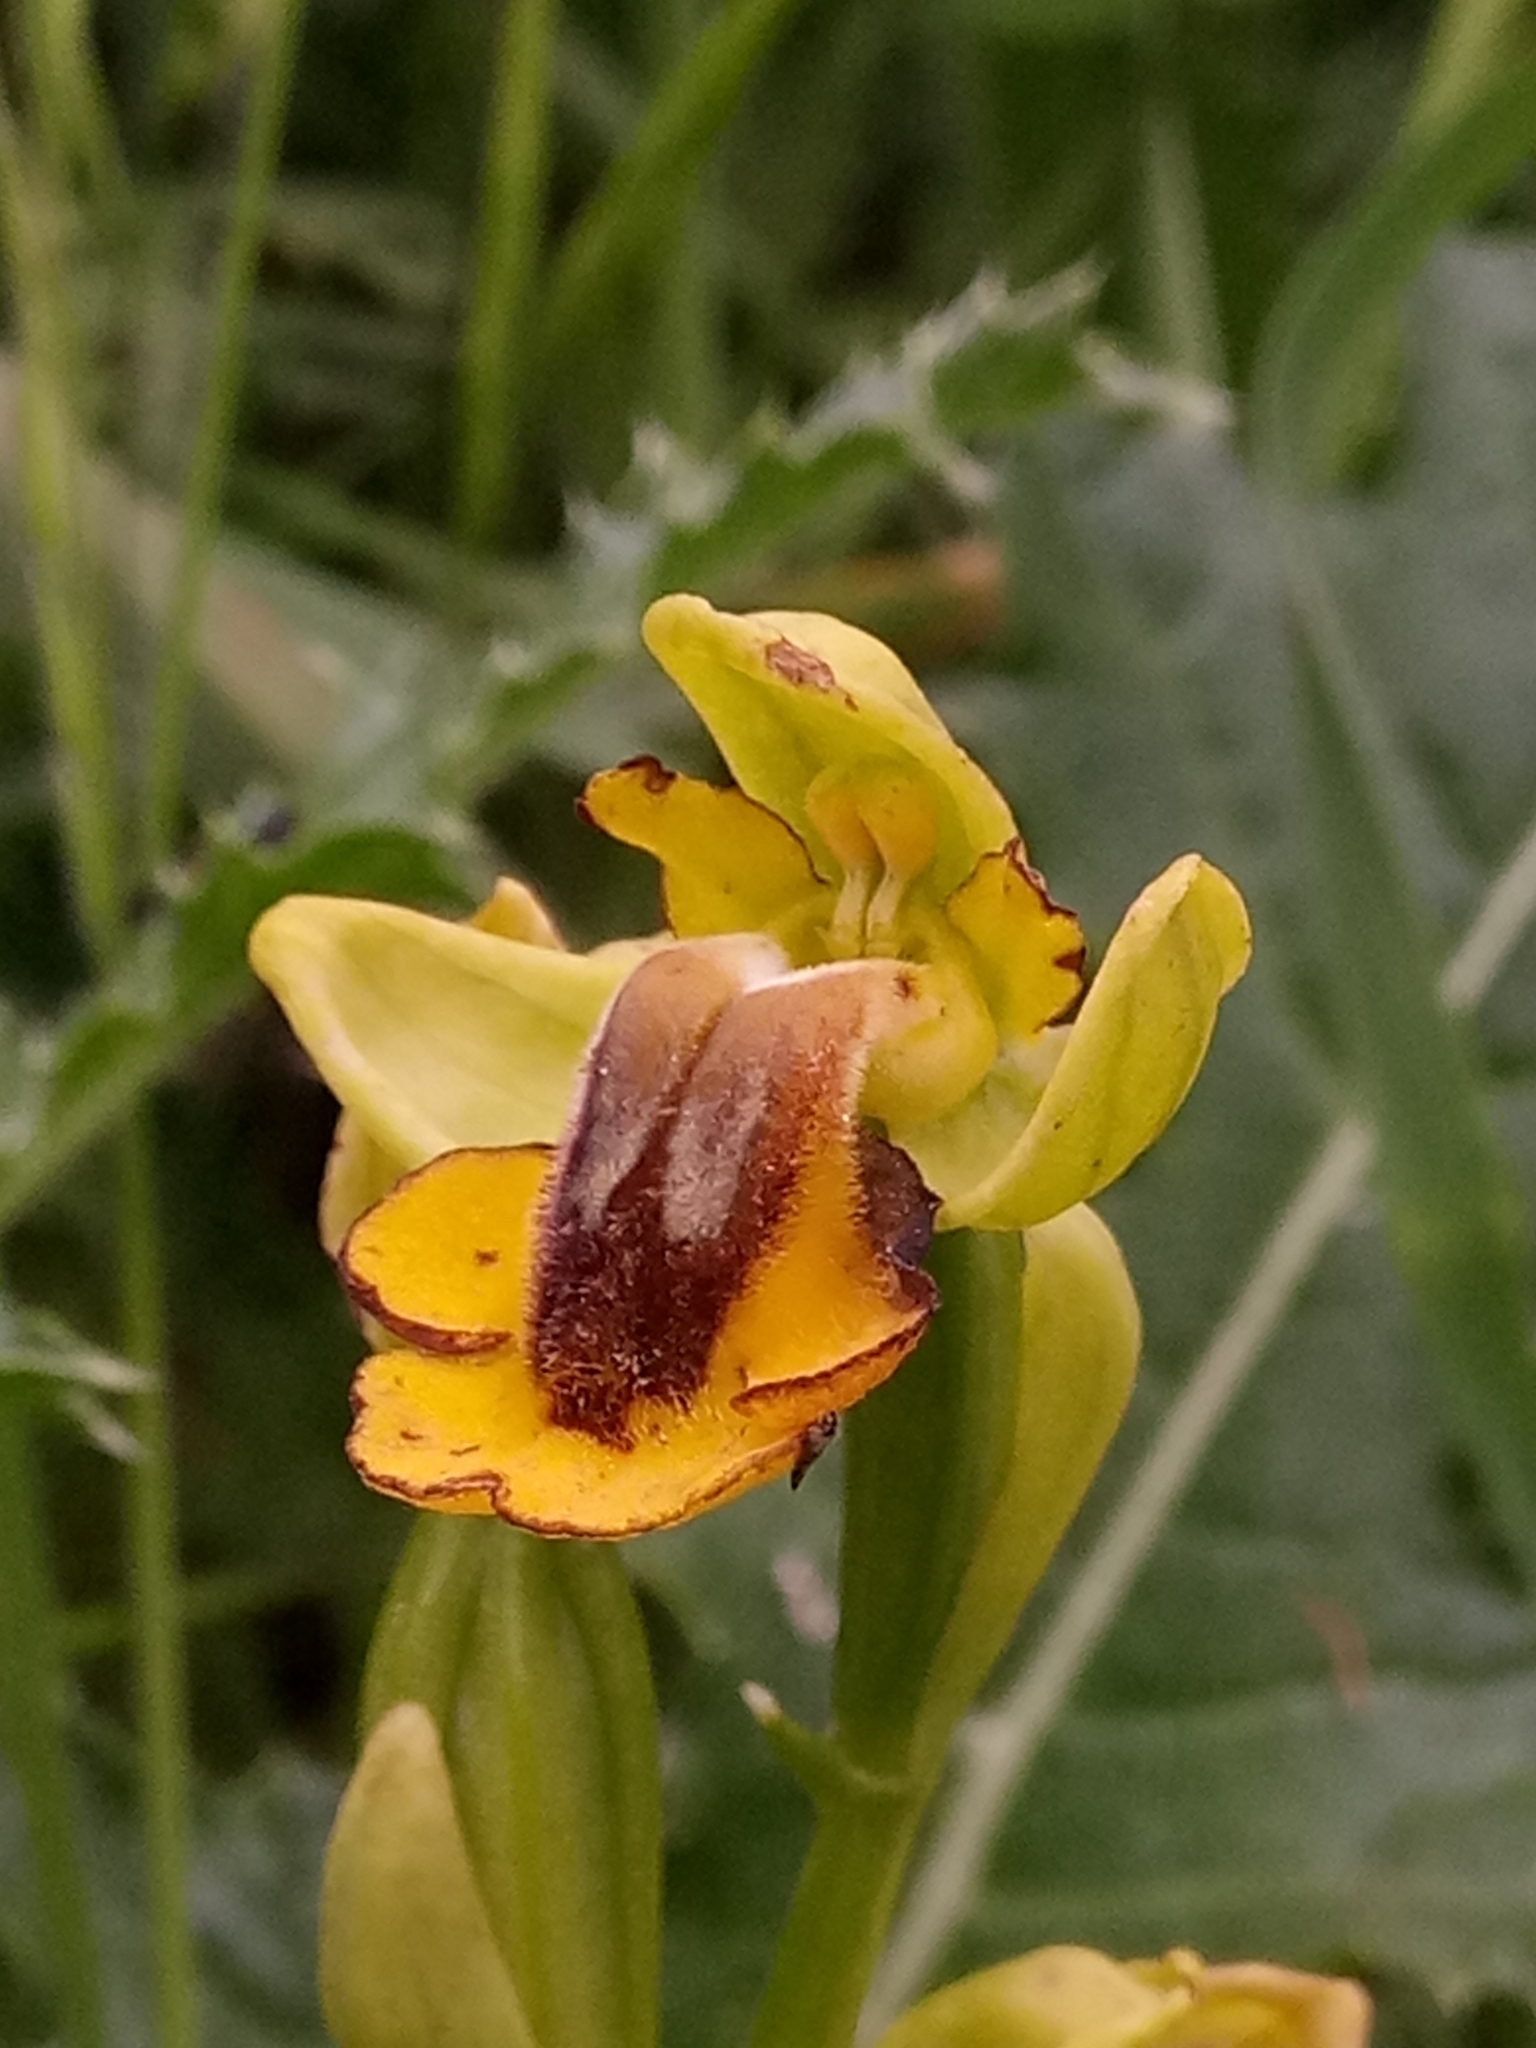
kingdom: Plantae
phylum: Tracheophyta
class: Liliopsida
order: Asparagales
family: Orchidaceae
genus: Ophrys
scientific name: Ophrys lutea
